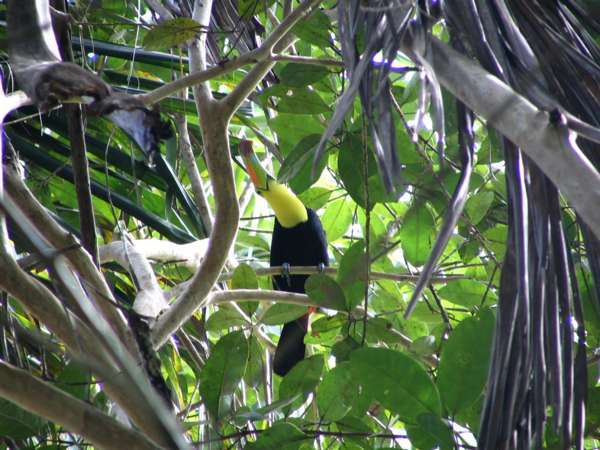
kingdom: Animalia
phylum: Chordata
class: Aves
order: Piciformes
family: Ramphastidae
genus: Ramphastos
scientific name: Ramphastos sulfuratus
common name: Keel-billed toucan
